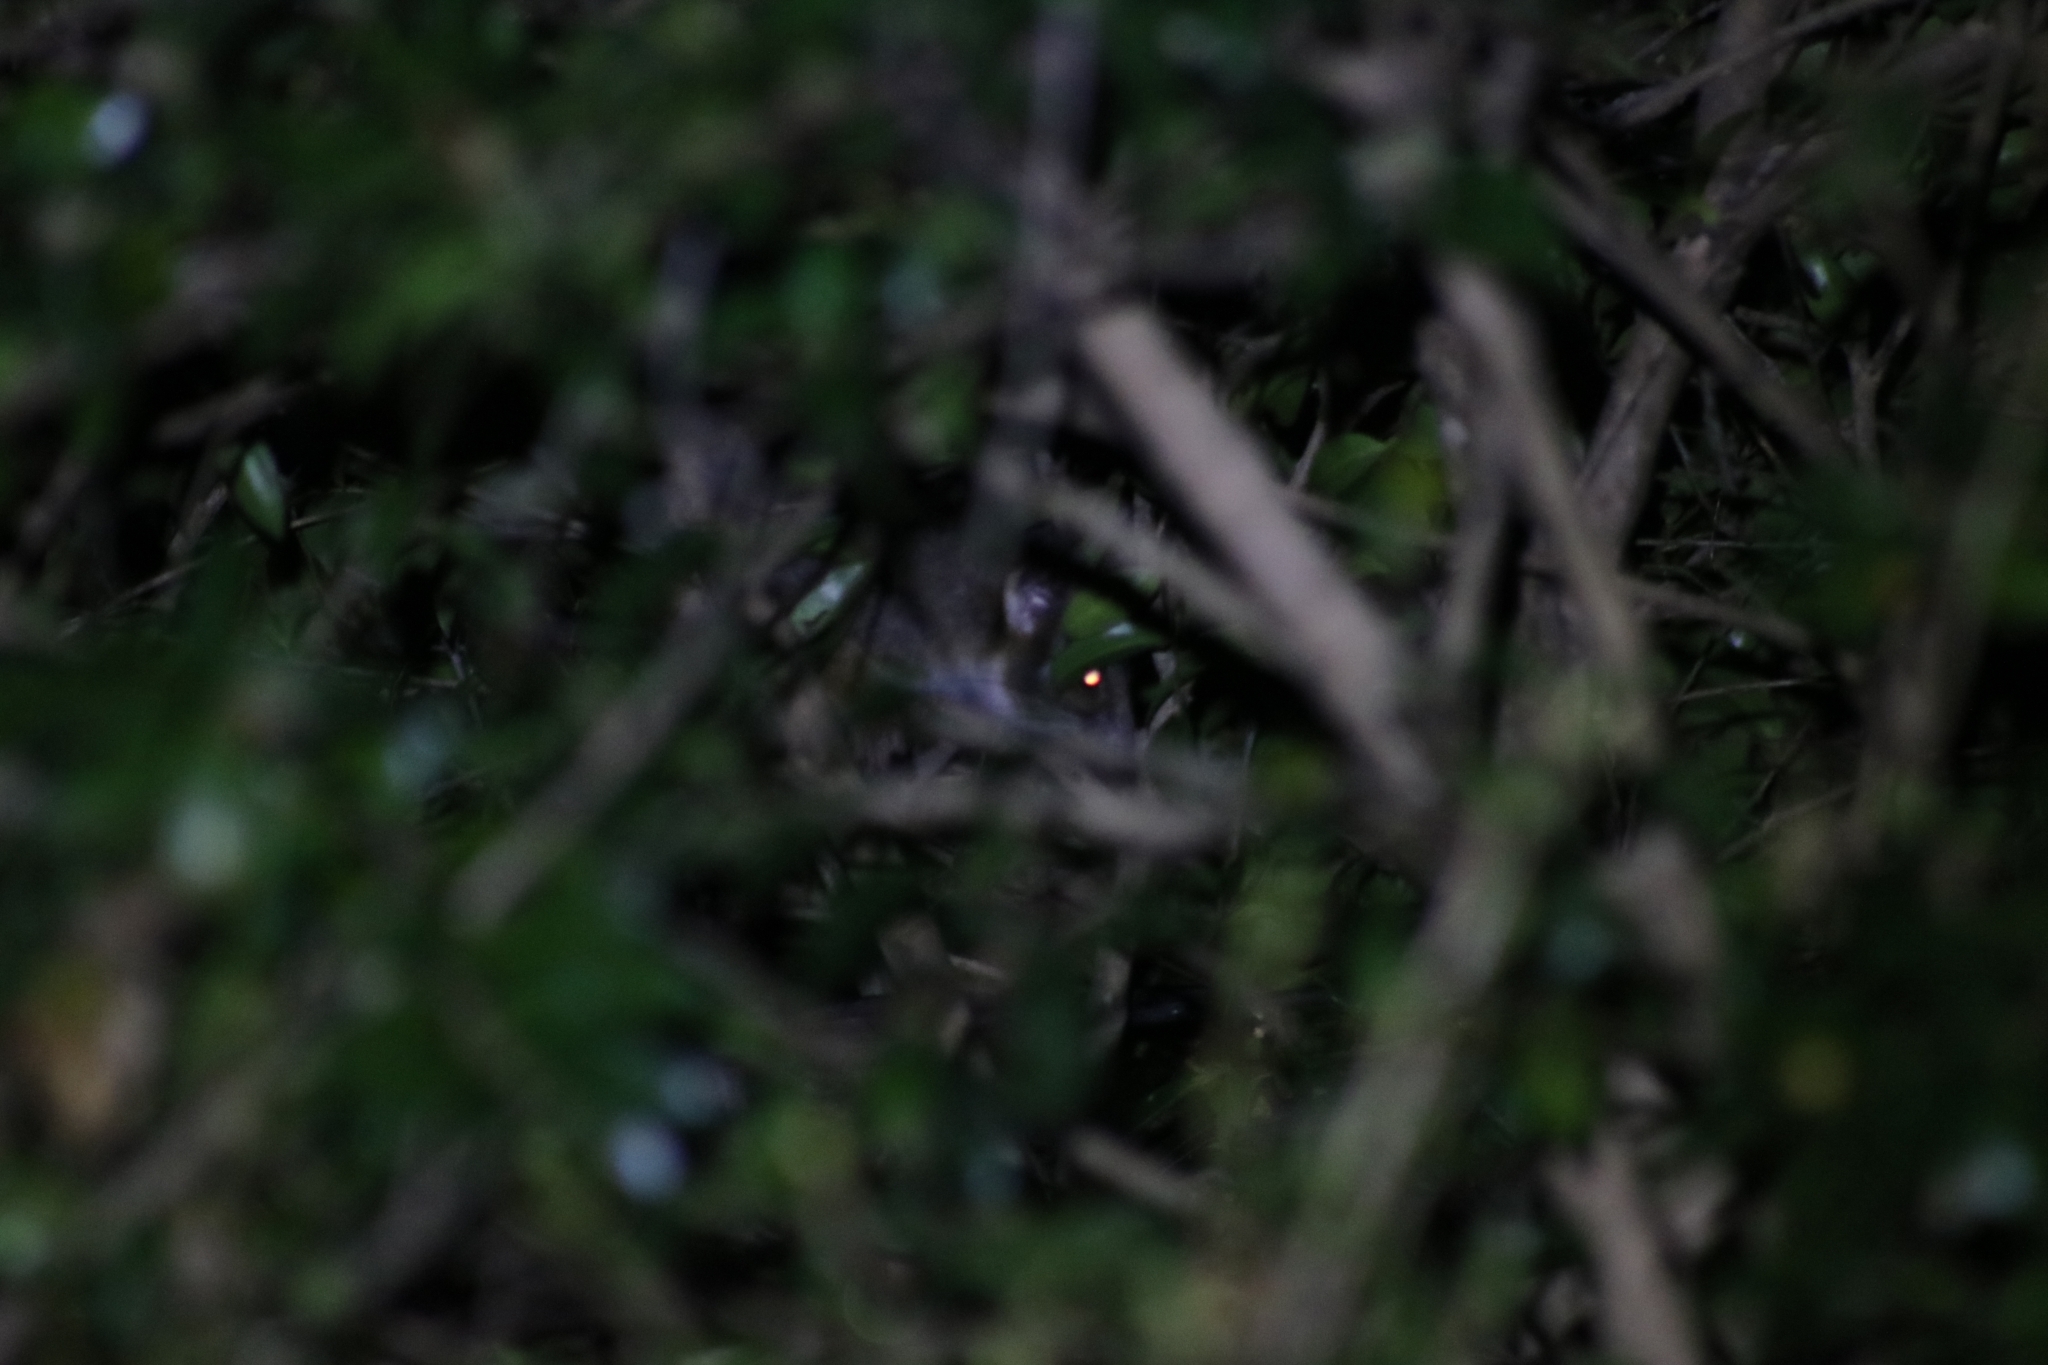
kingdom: Animalia
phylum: Chordata
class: Mammalia
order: Diprotodontia
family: Pseudocheiridae
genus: Pseudocheirus
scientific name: Pseudocheirus peregrinus
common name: Common ringtail possum
